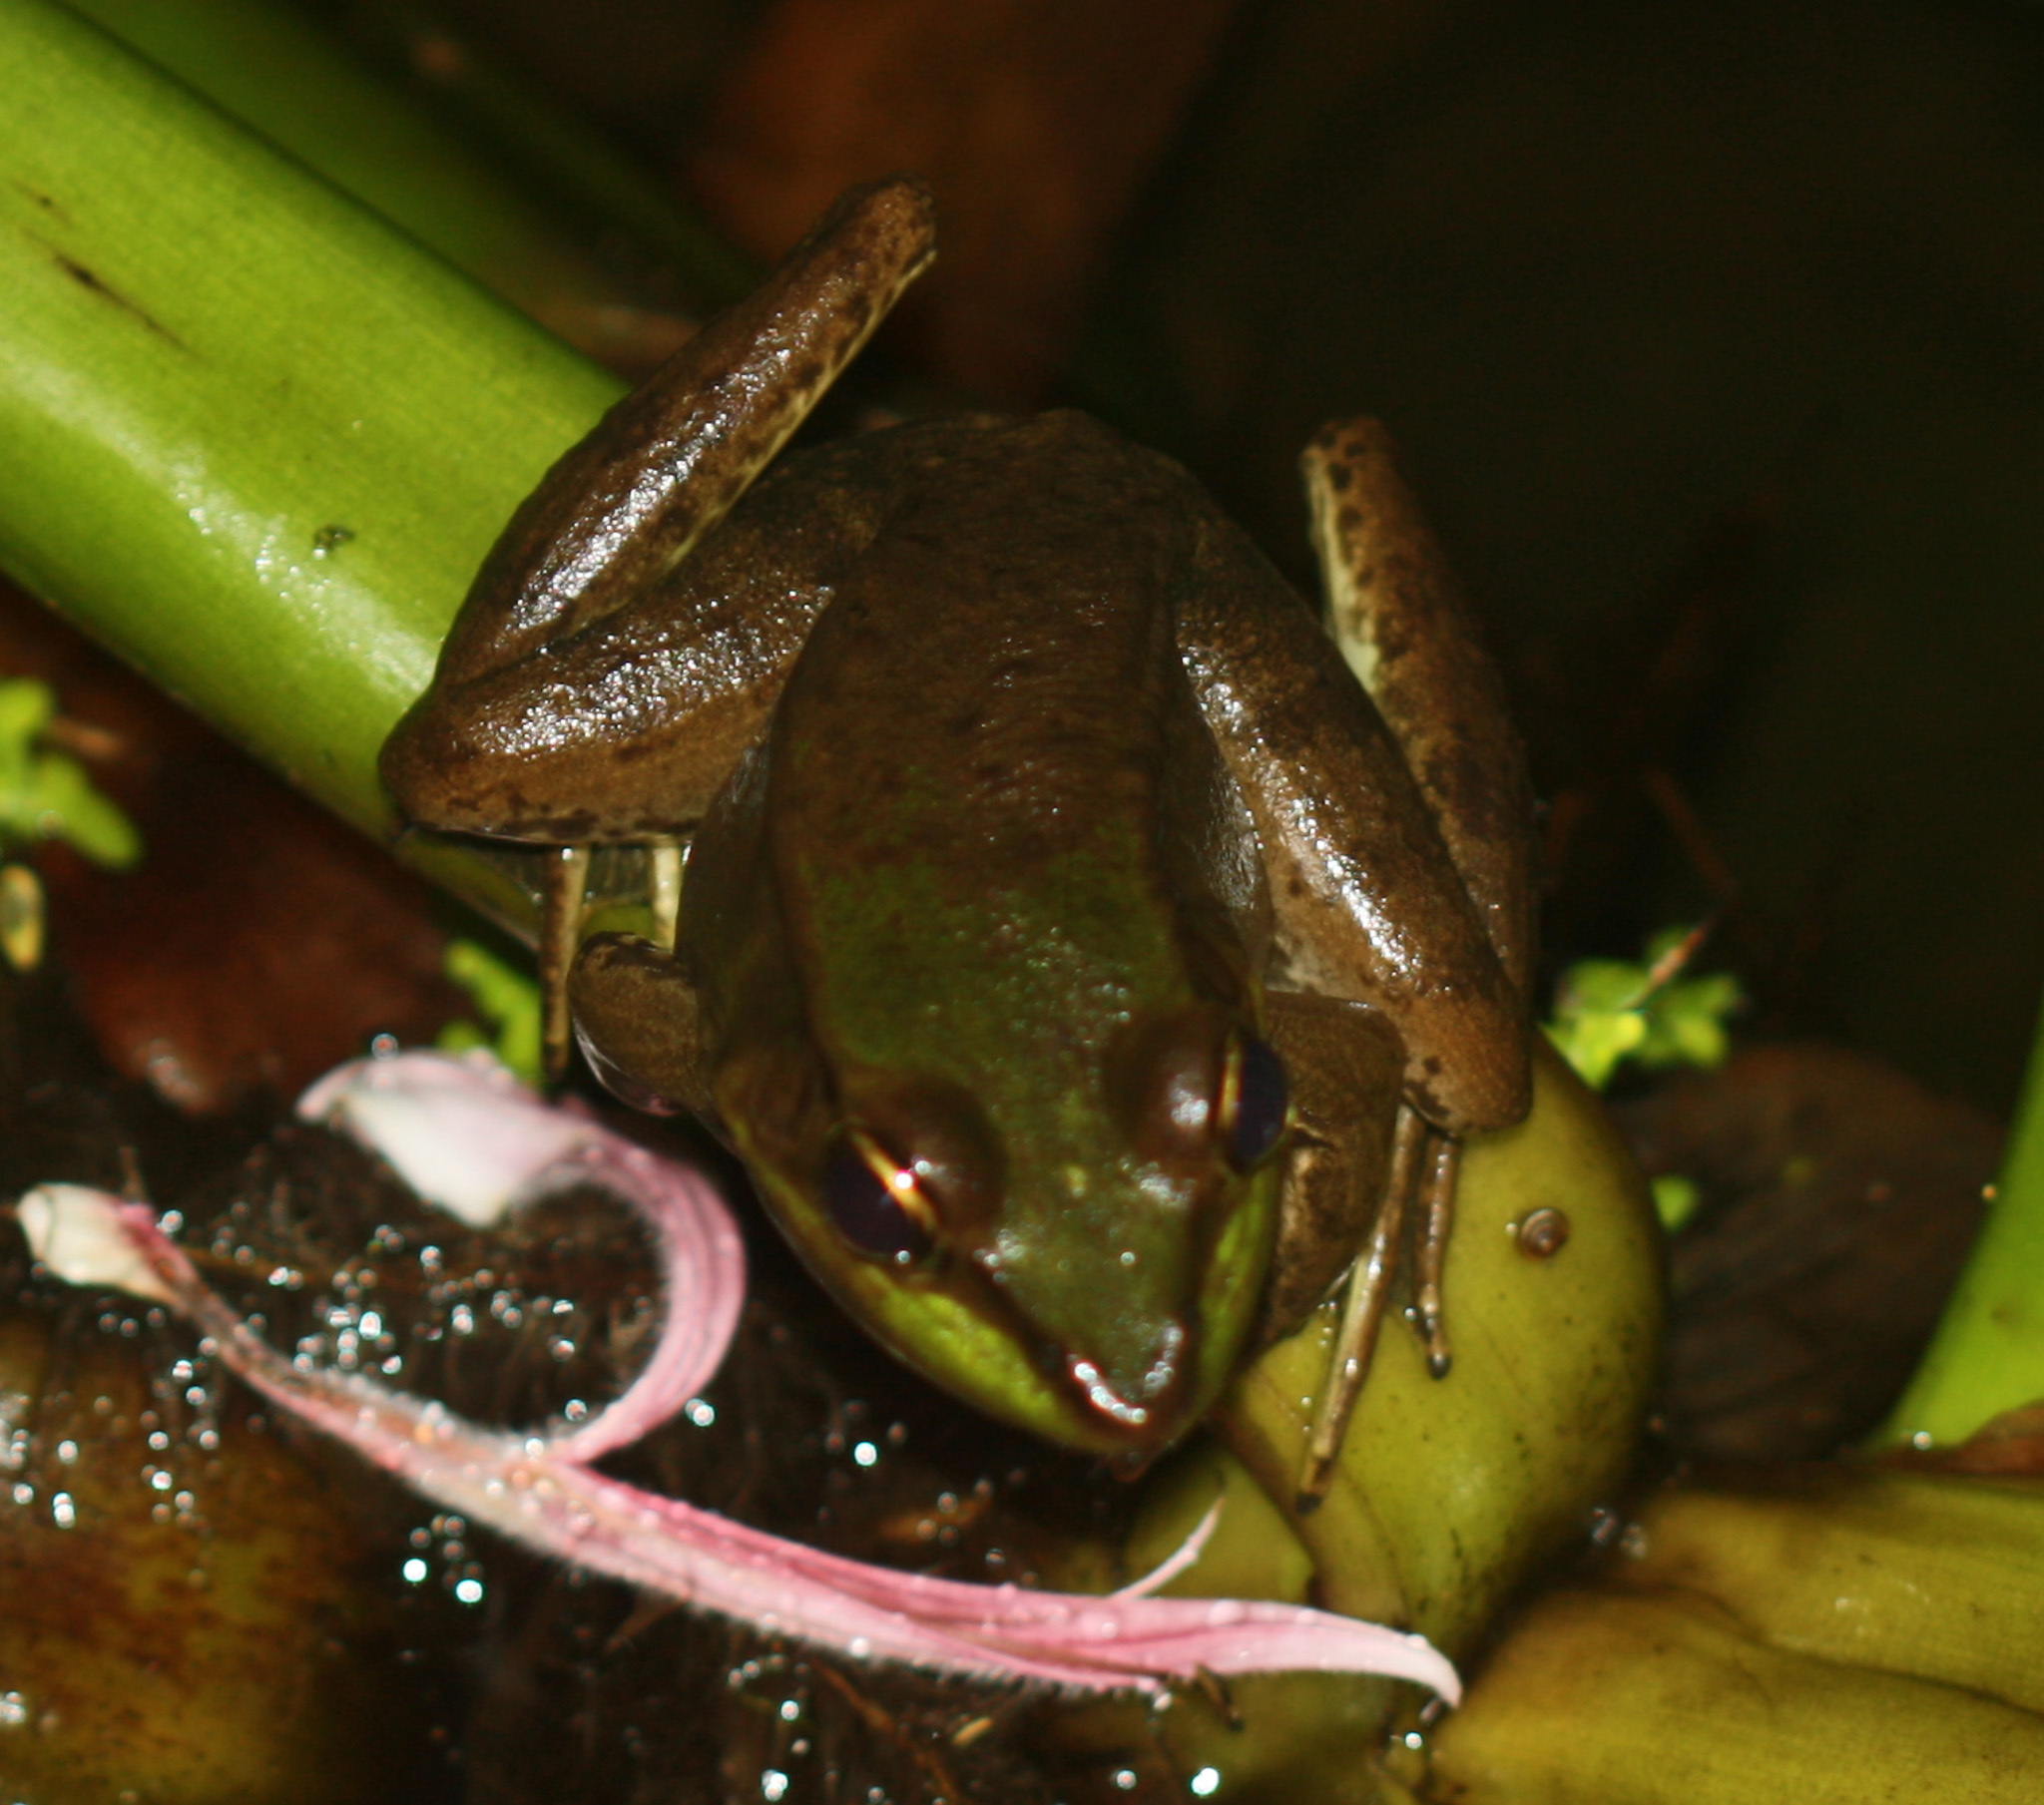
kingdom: Animalia
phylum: Chordata
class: Amphibia
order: Anura
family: Ranidae
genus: Lithobates
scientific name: Lithobates vaillanti
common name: Vaillant's frog
